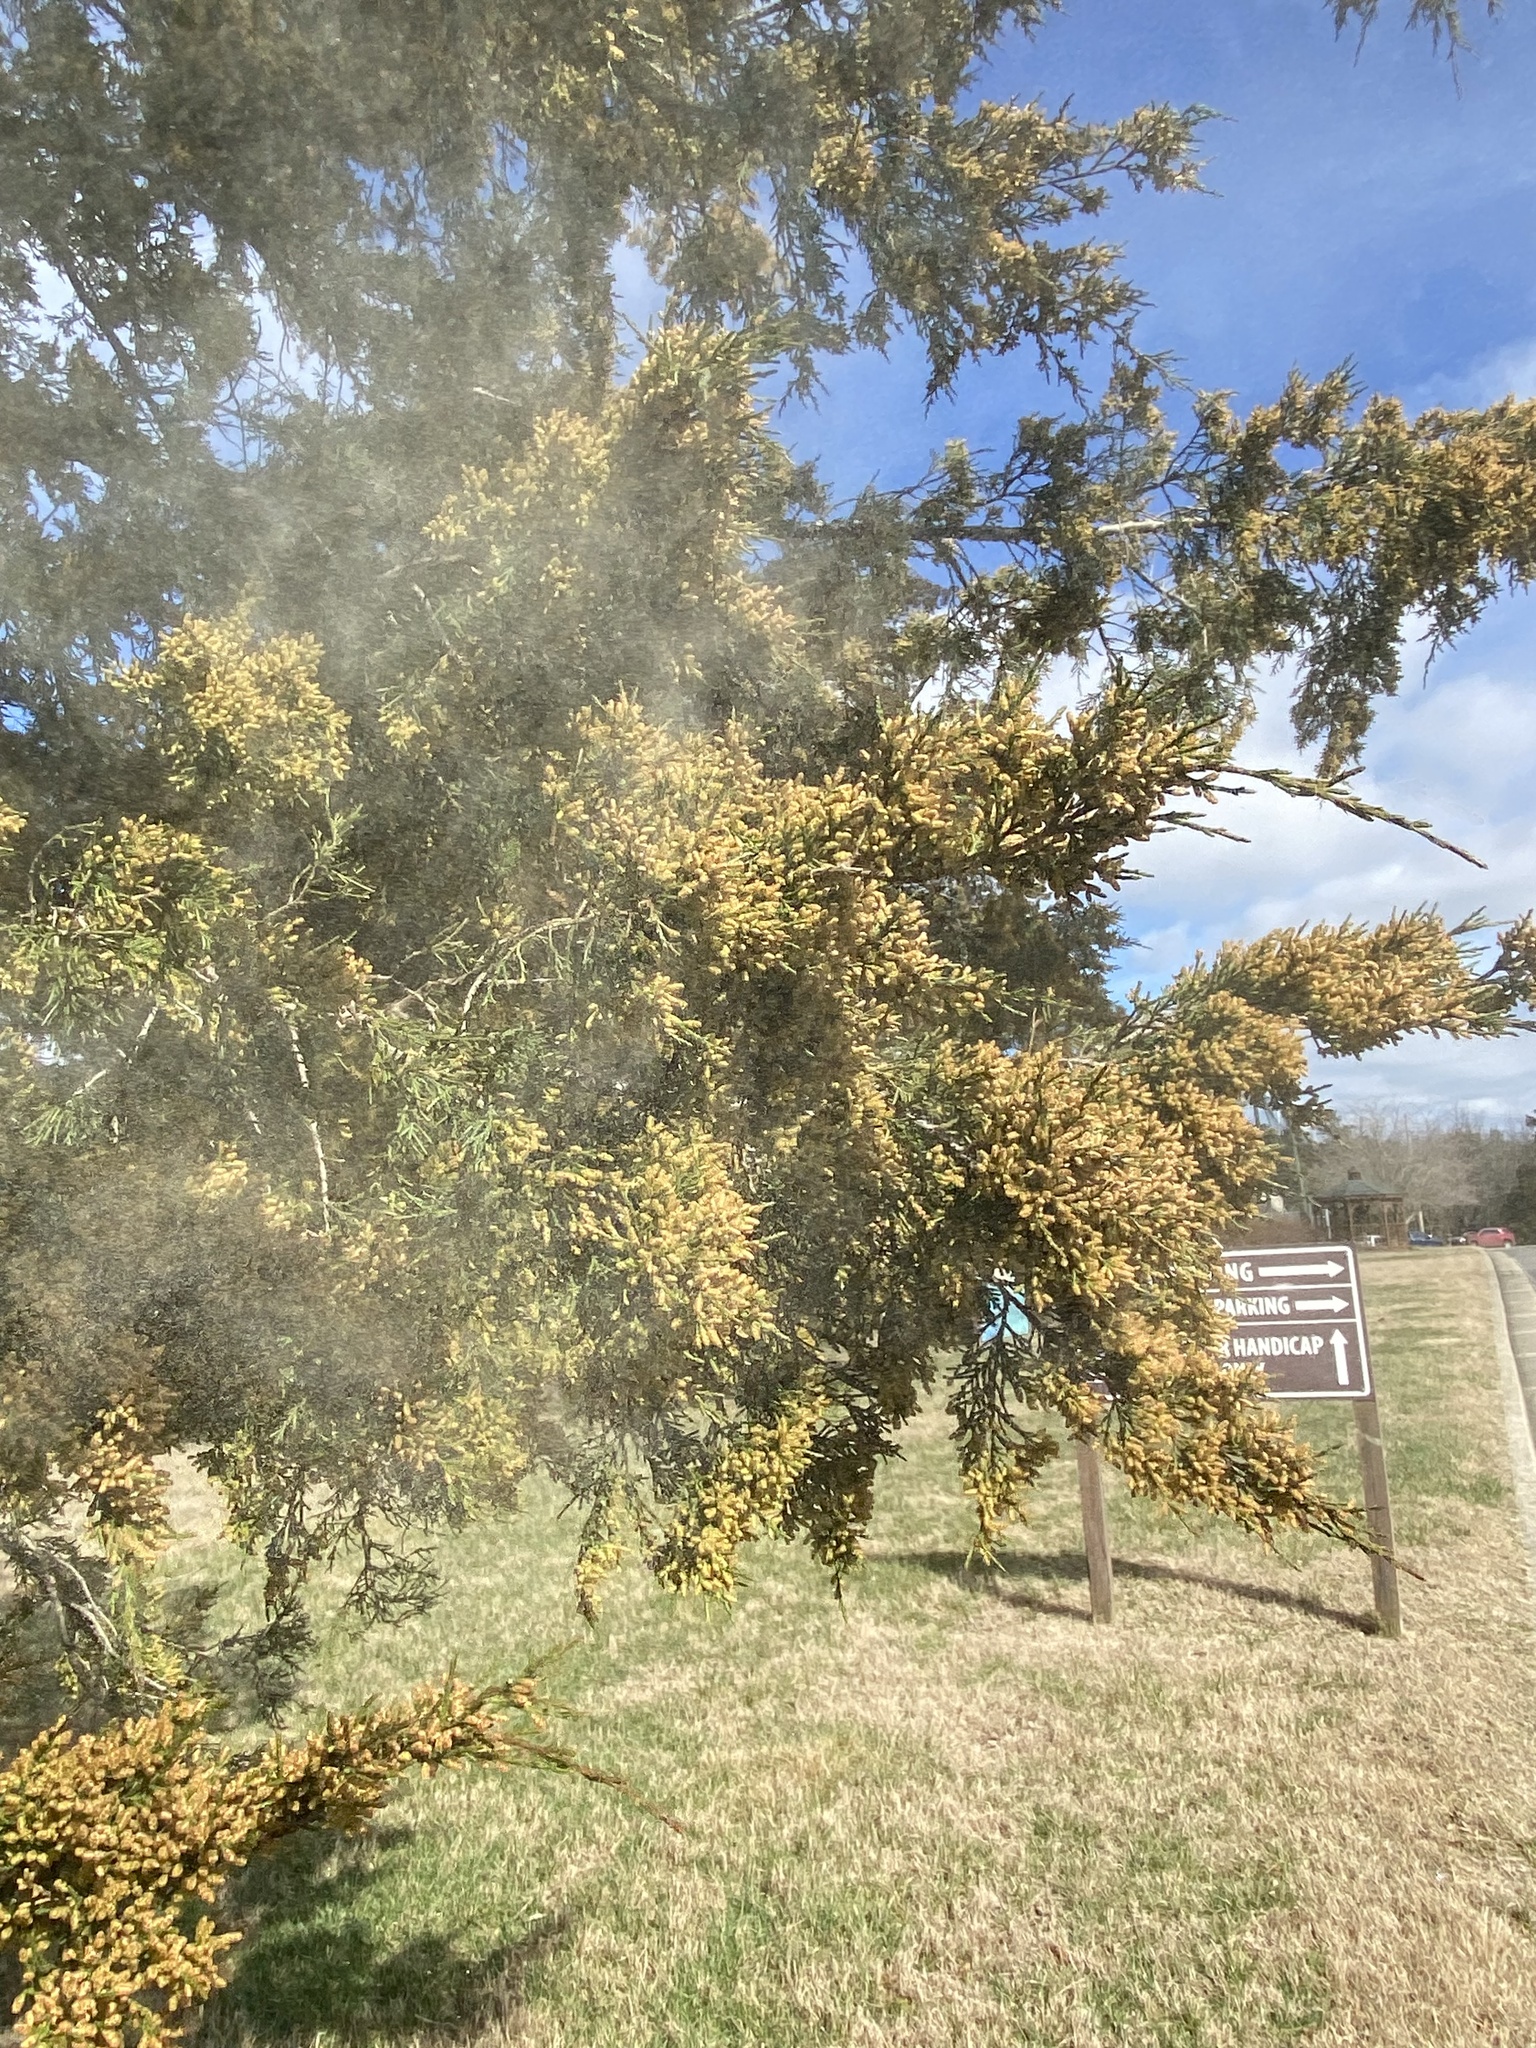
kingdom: Plantae
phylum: Tracheophyta
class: Pinopsida
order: Pinales
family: Cupressaceae
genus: Juniperus
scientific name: Juniperus virginiana
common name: Red juniper
